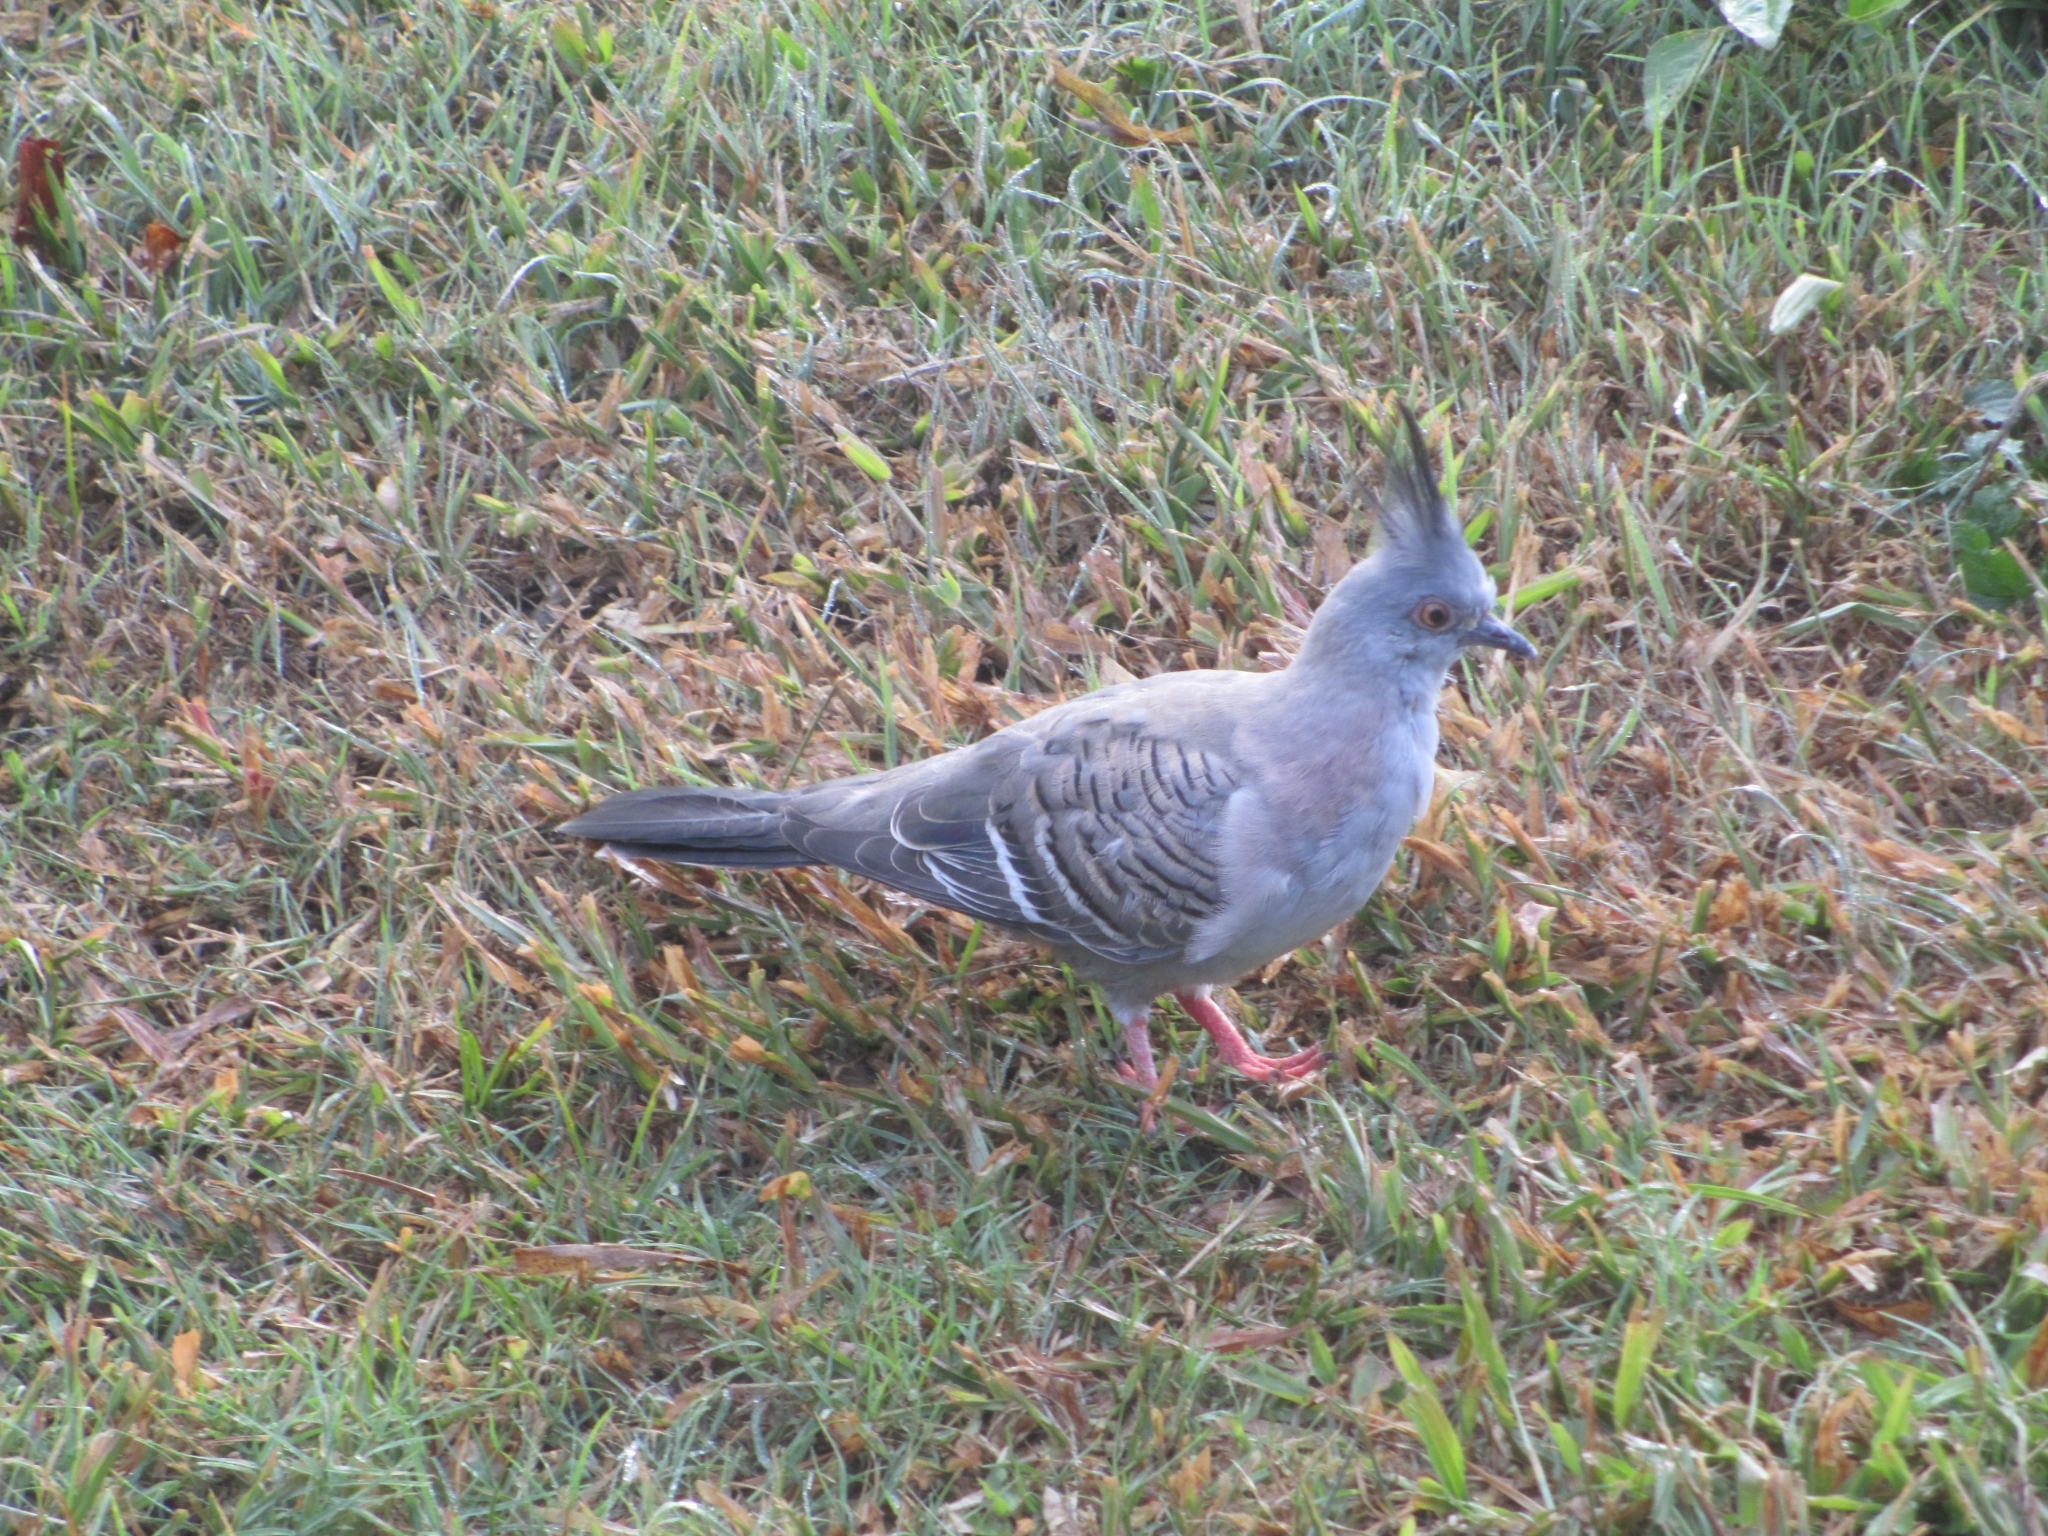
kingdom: Animalia
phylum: Chordata
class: Aves
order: Columbiformes
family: Columbidae
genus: Ocyphaps
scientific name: Ocyphaps lophotes
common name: Crested pigeon
